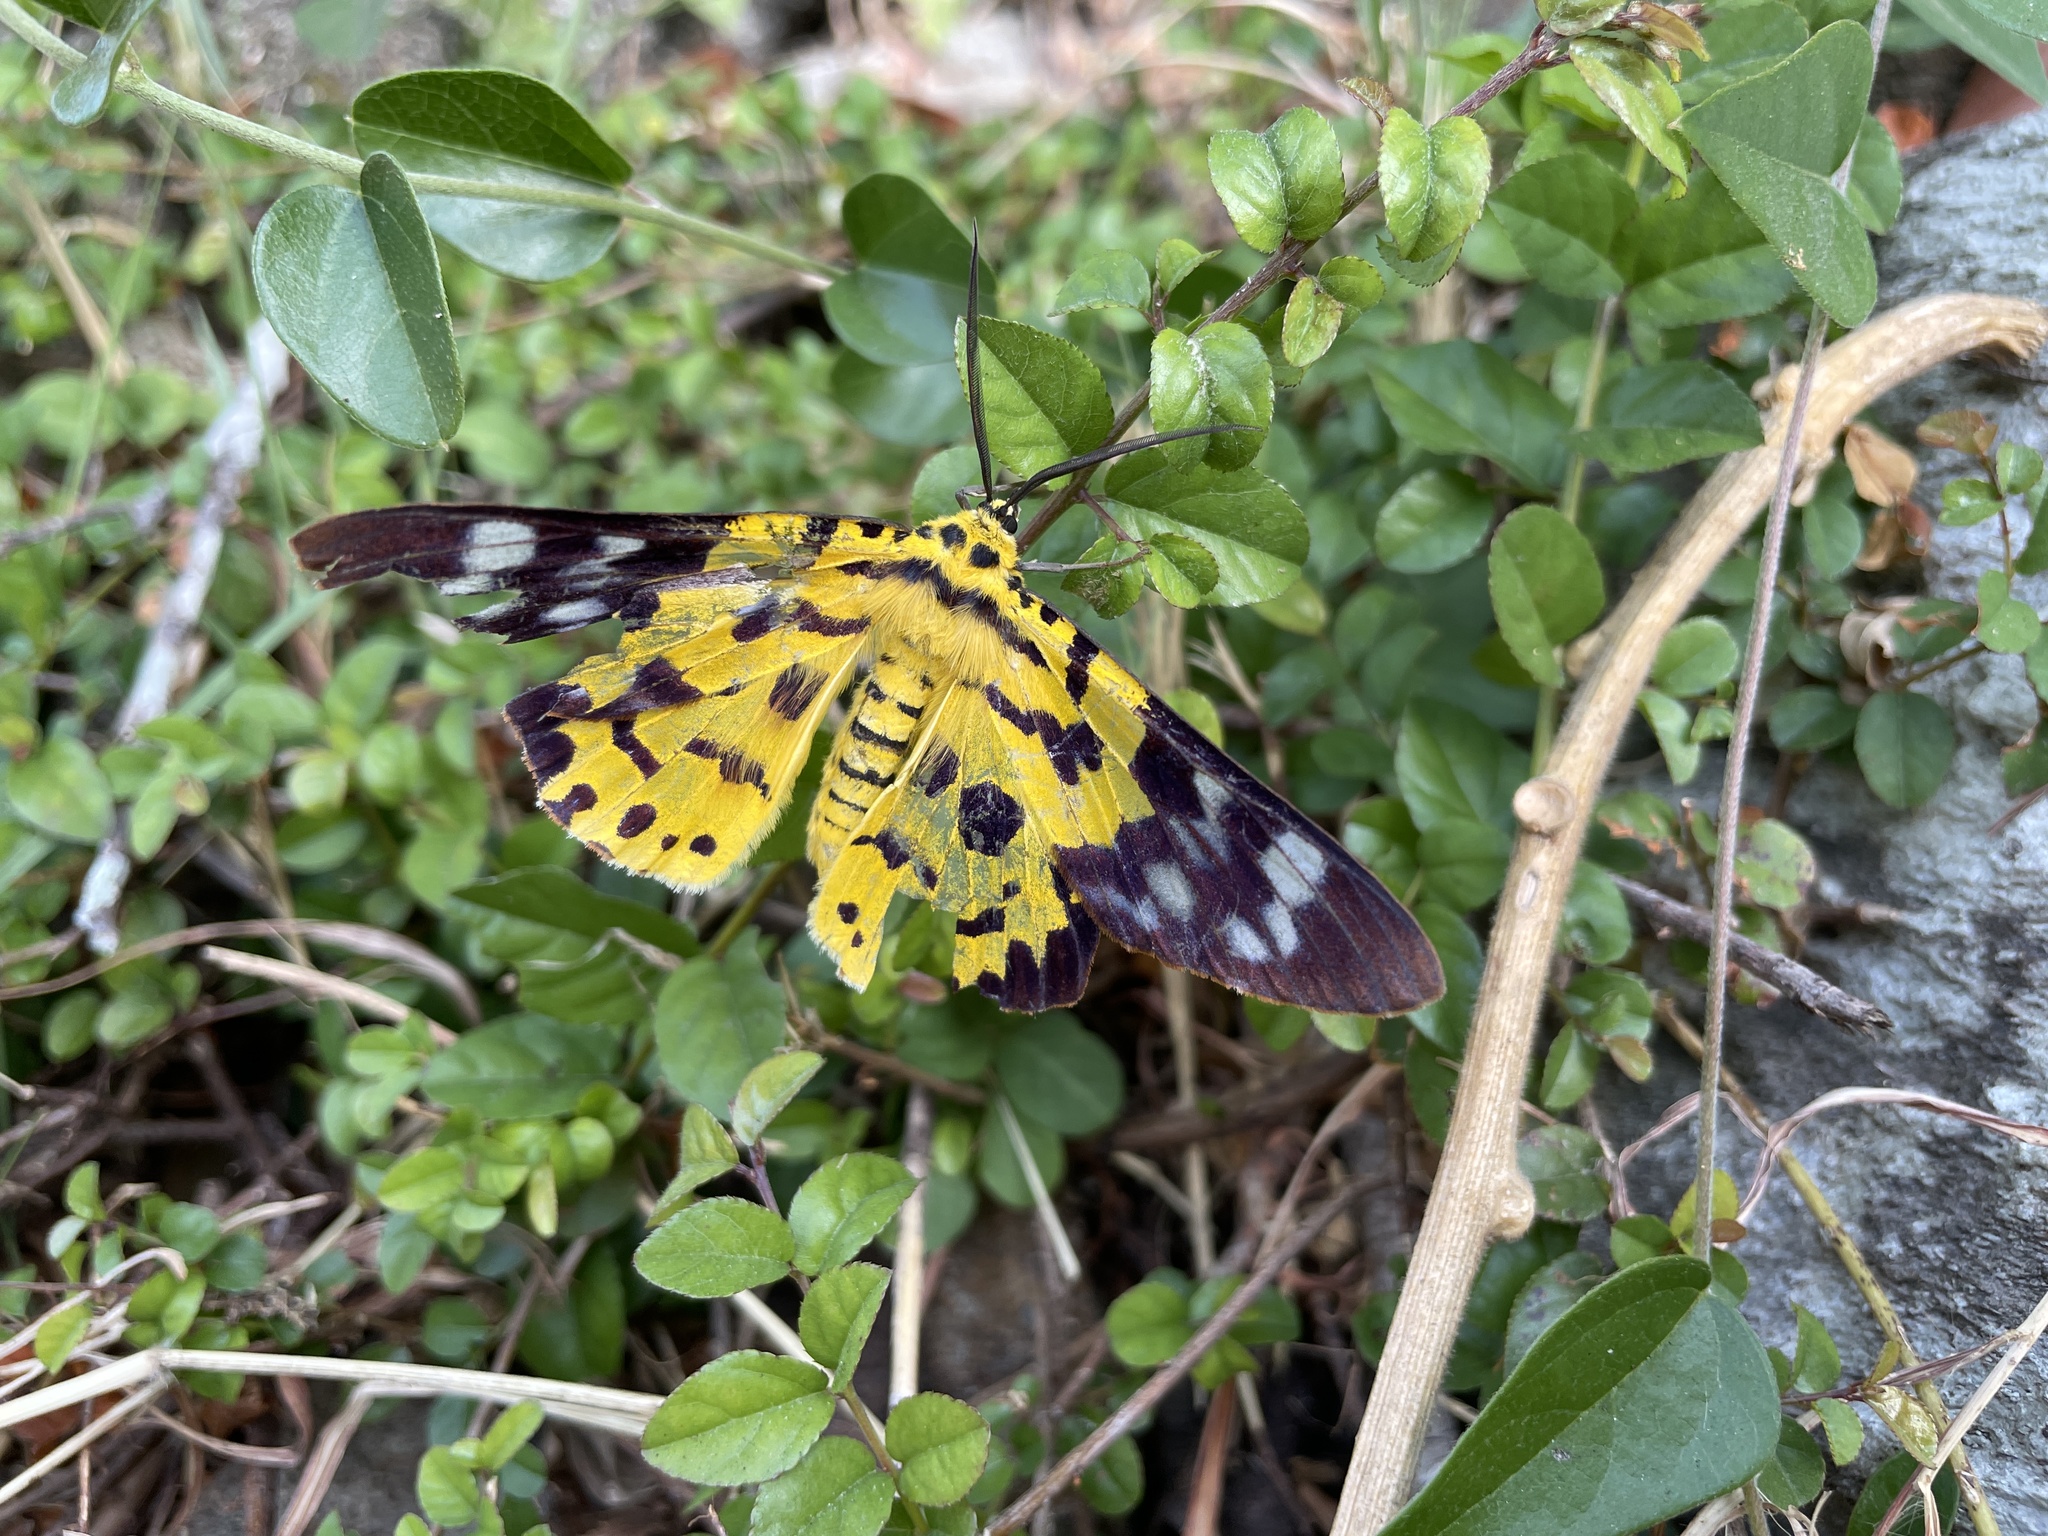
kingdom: Animalia
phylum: Arthropoda
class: Insecta
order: Lepidoptera
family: Geometridae
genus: Dysphania
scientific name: Dysphania militaris
